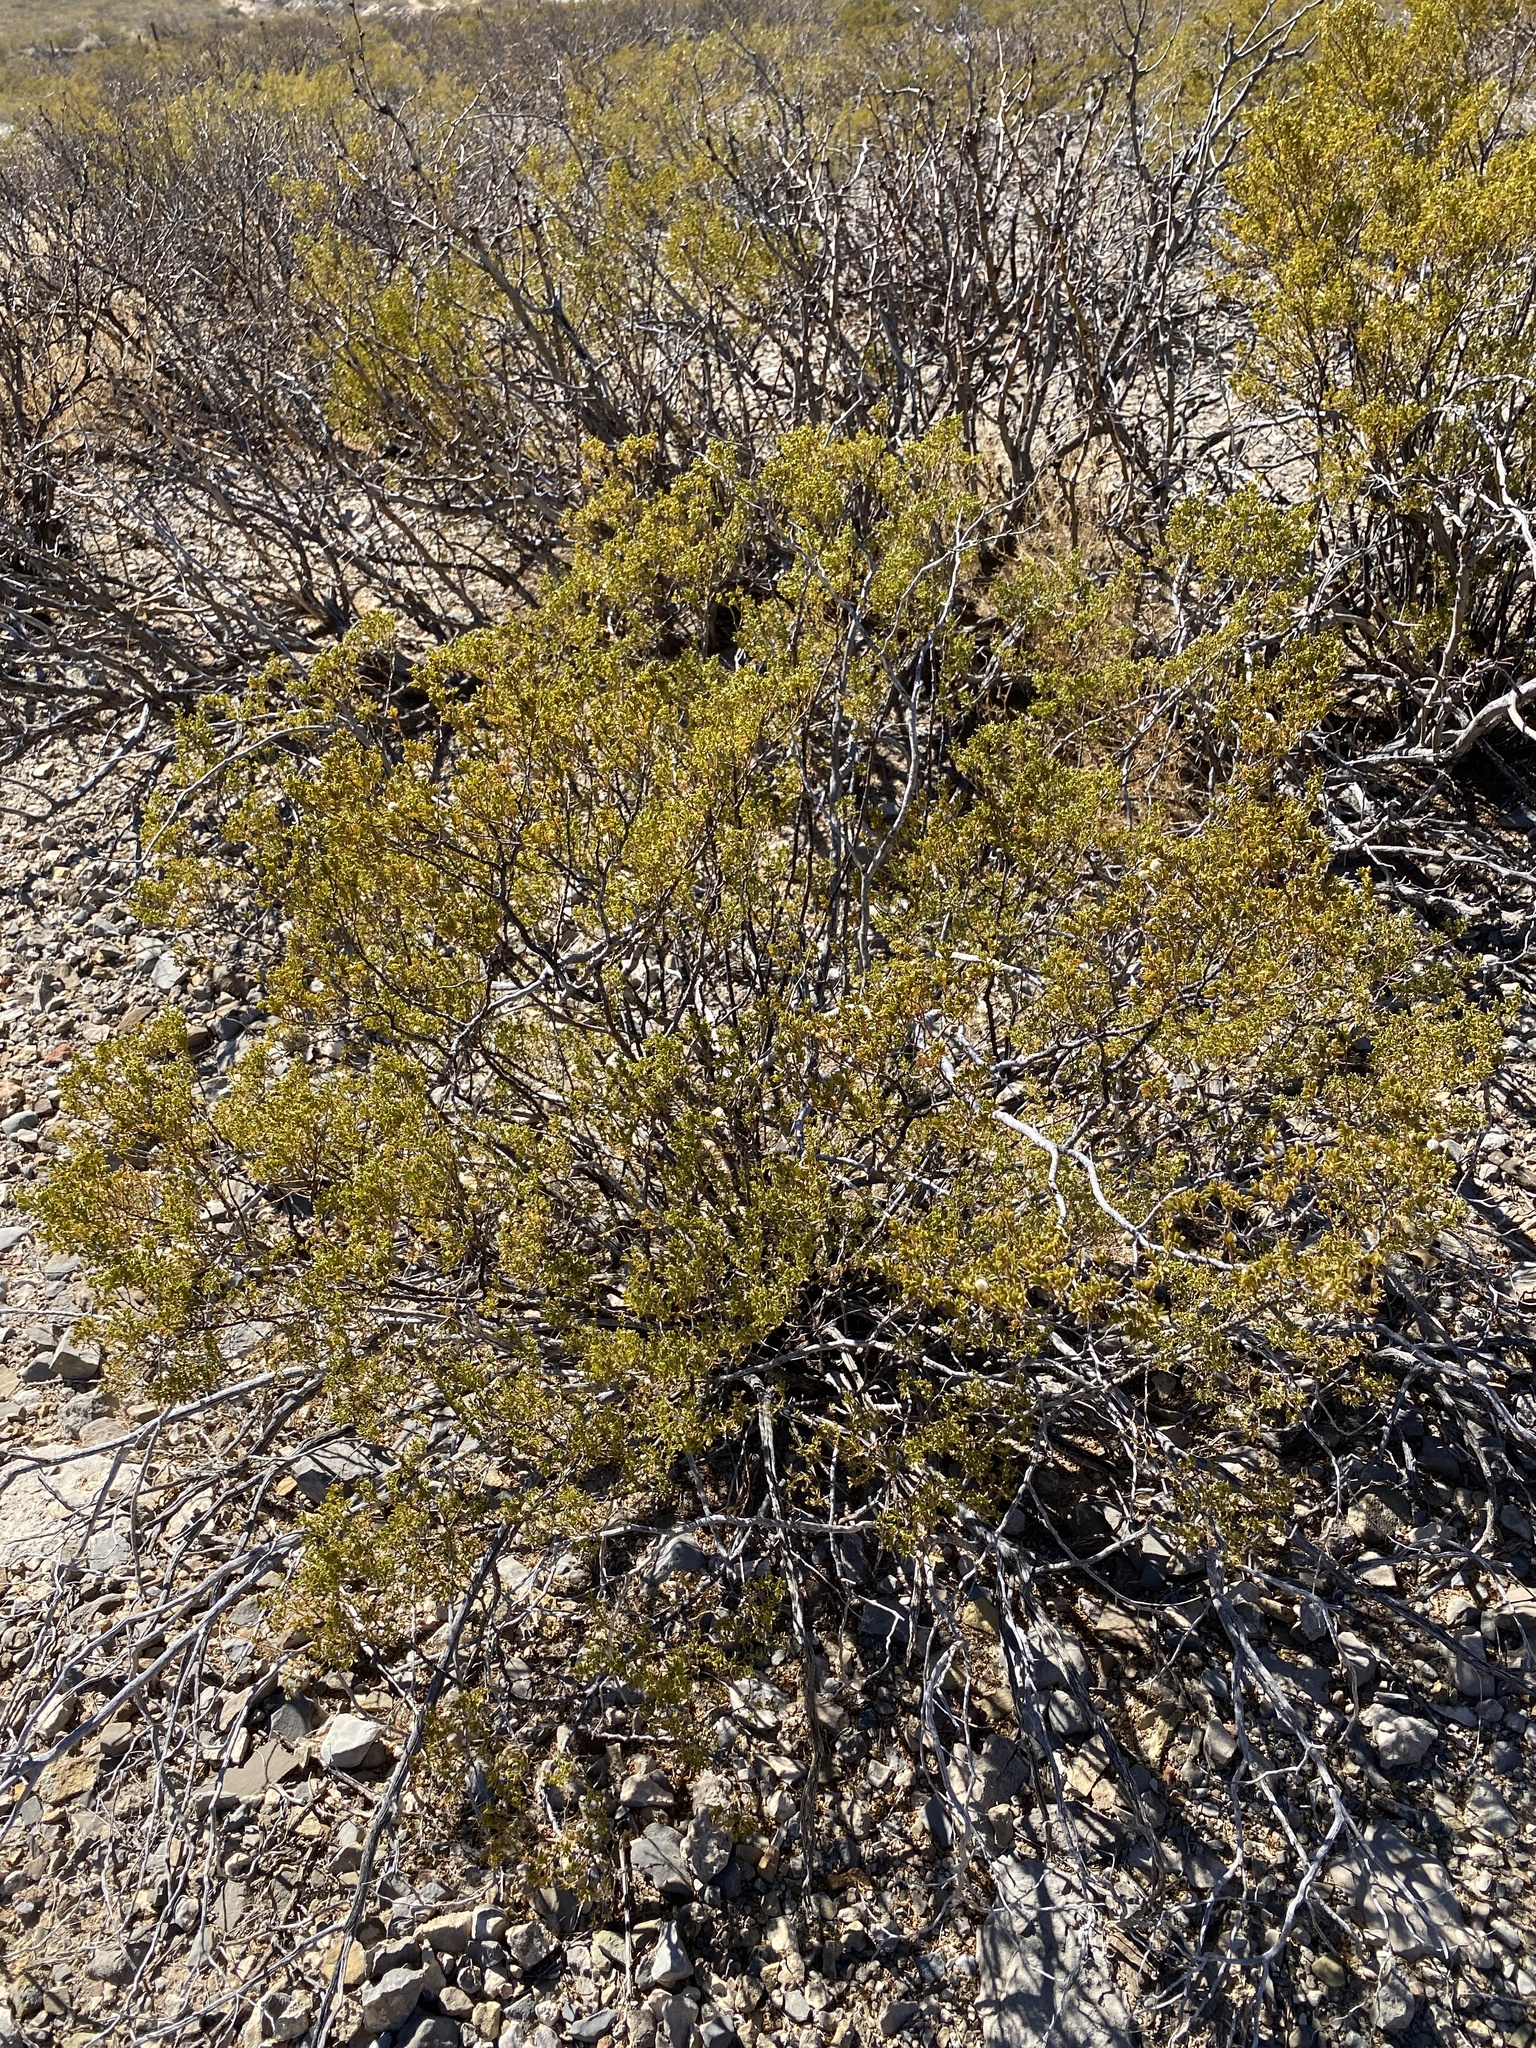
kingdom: Plantae
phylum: Tracheophyta
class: Magnoliopsida
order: Zygophyllales
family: Zygophyllaceae
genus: Larrea
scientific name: Larrea tridentata
